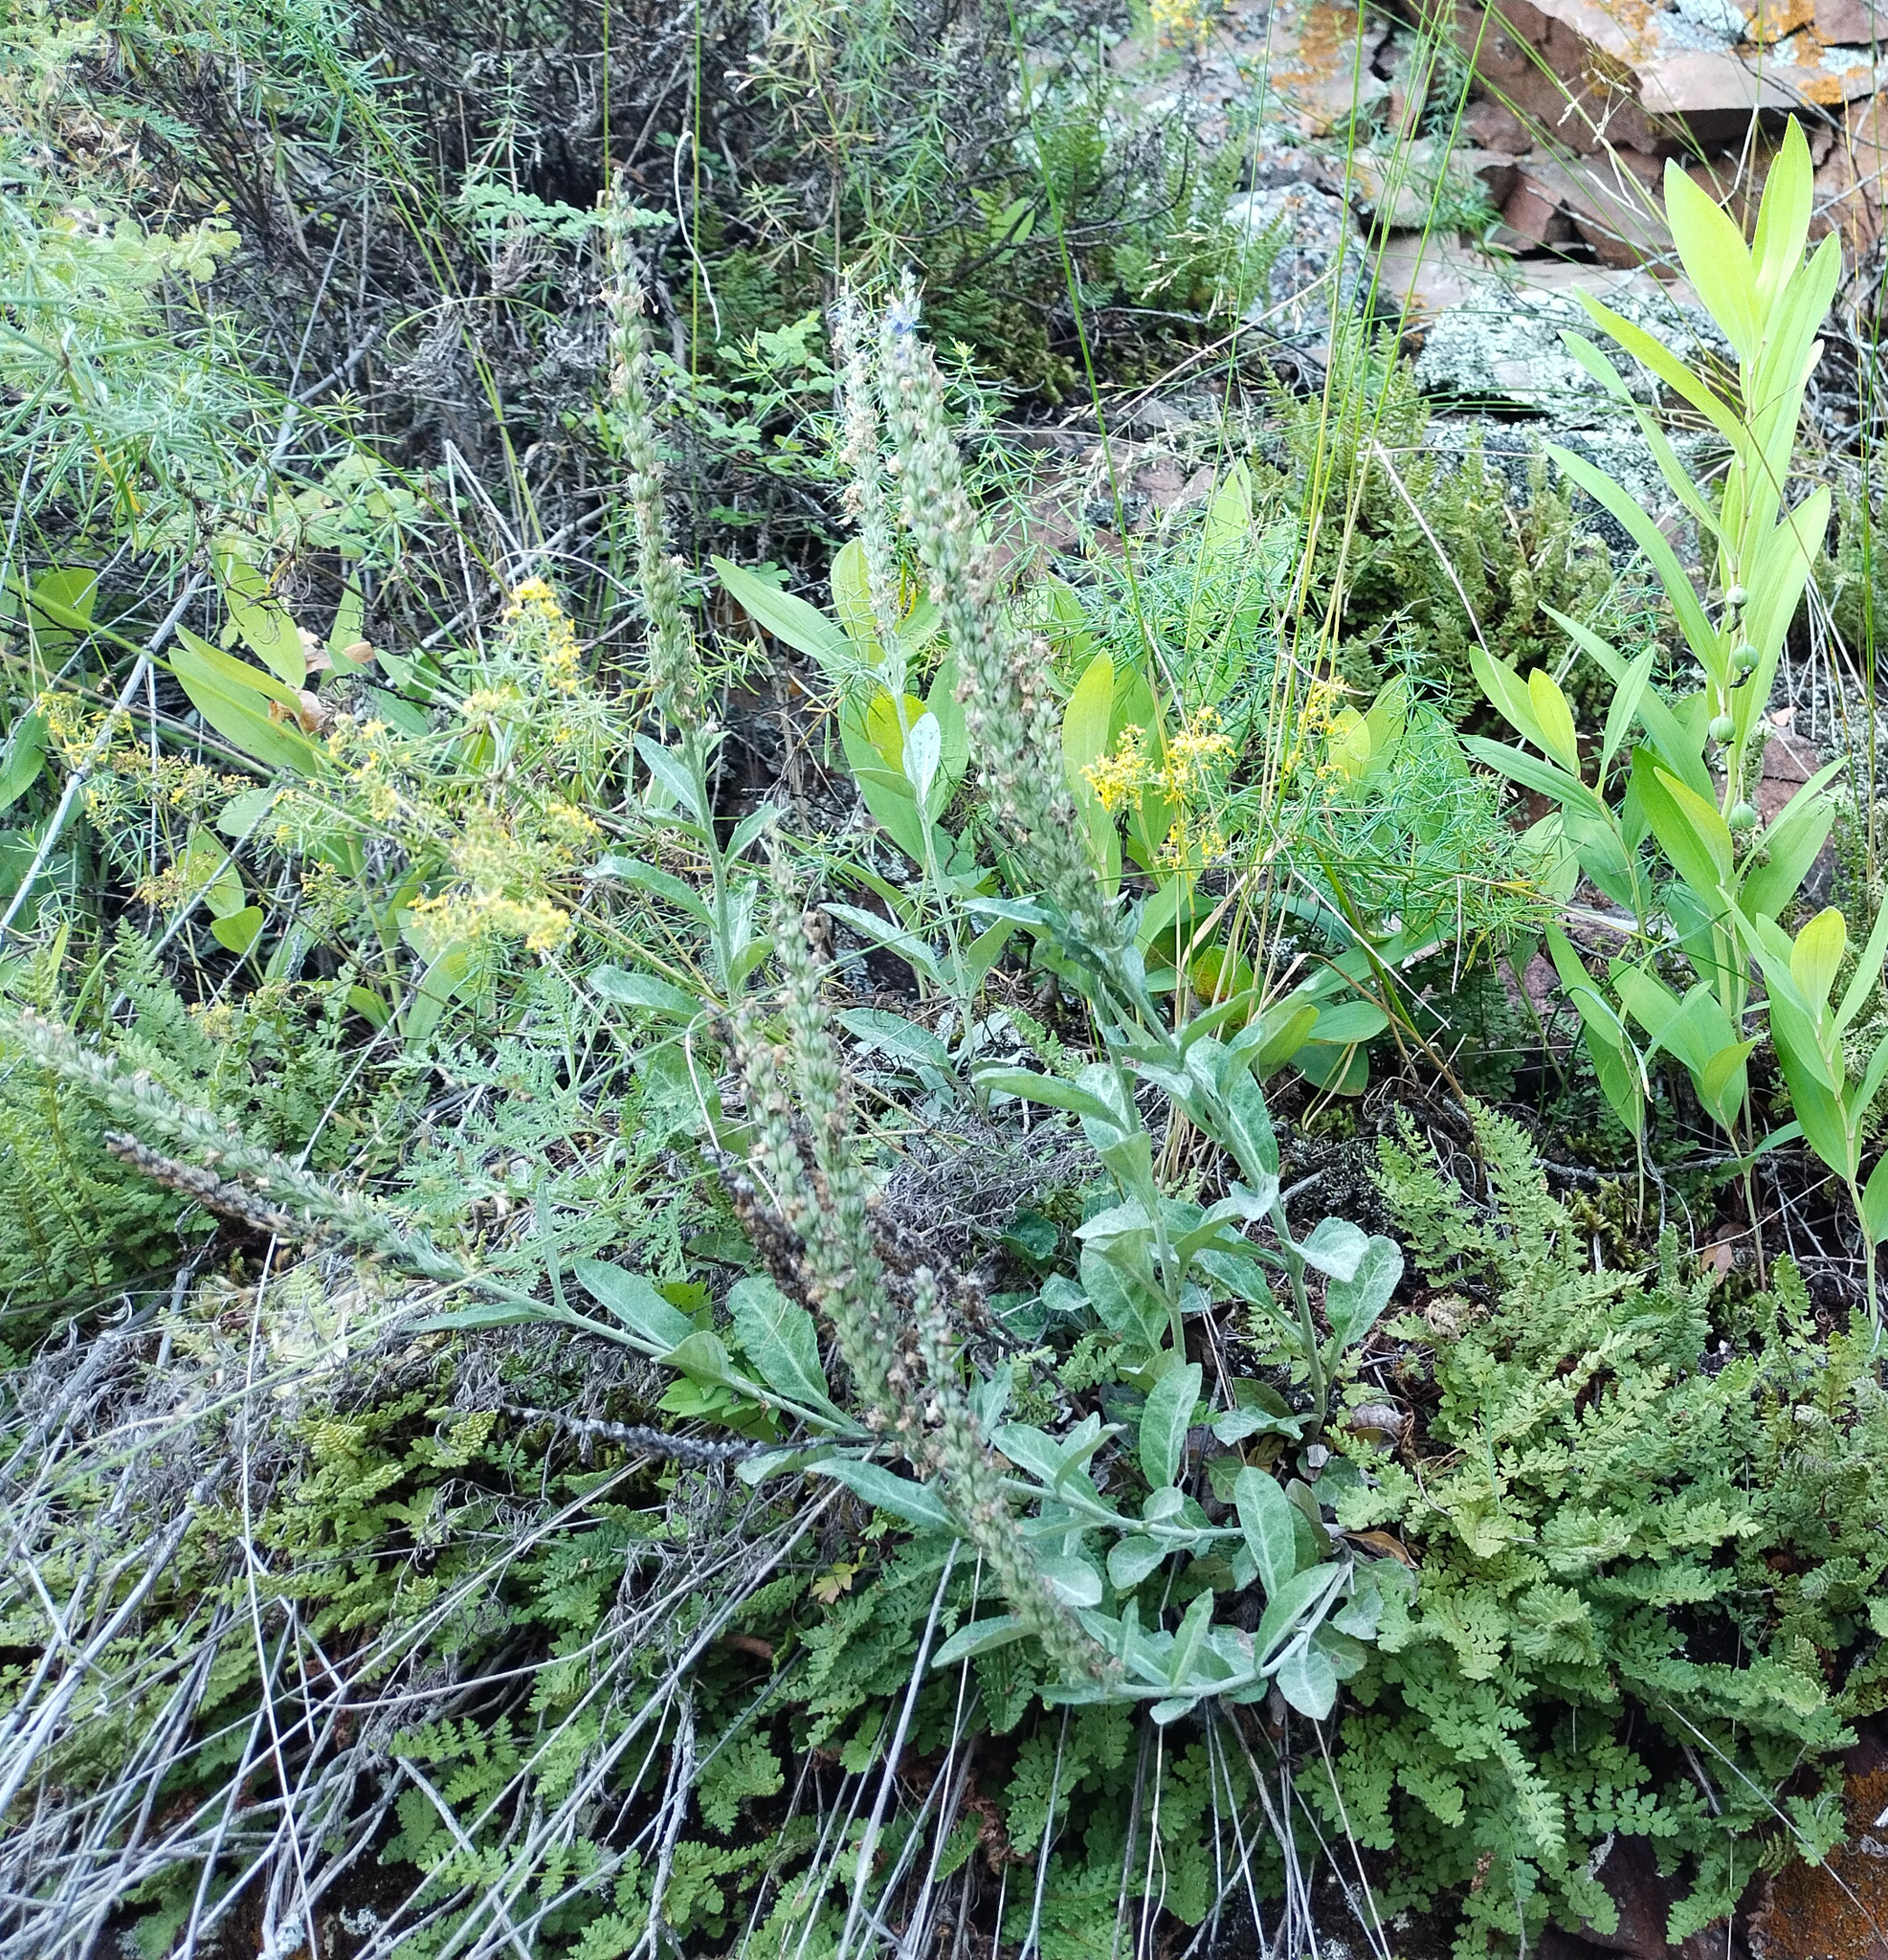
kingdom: Plantae
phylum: Tracheophyta
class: Magnoliopsida
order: Lamiales
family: Plantaginaceae
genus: Veronica
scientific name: Veronica incana
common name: Silver speedwell
